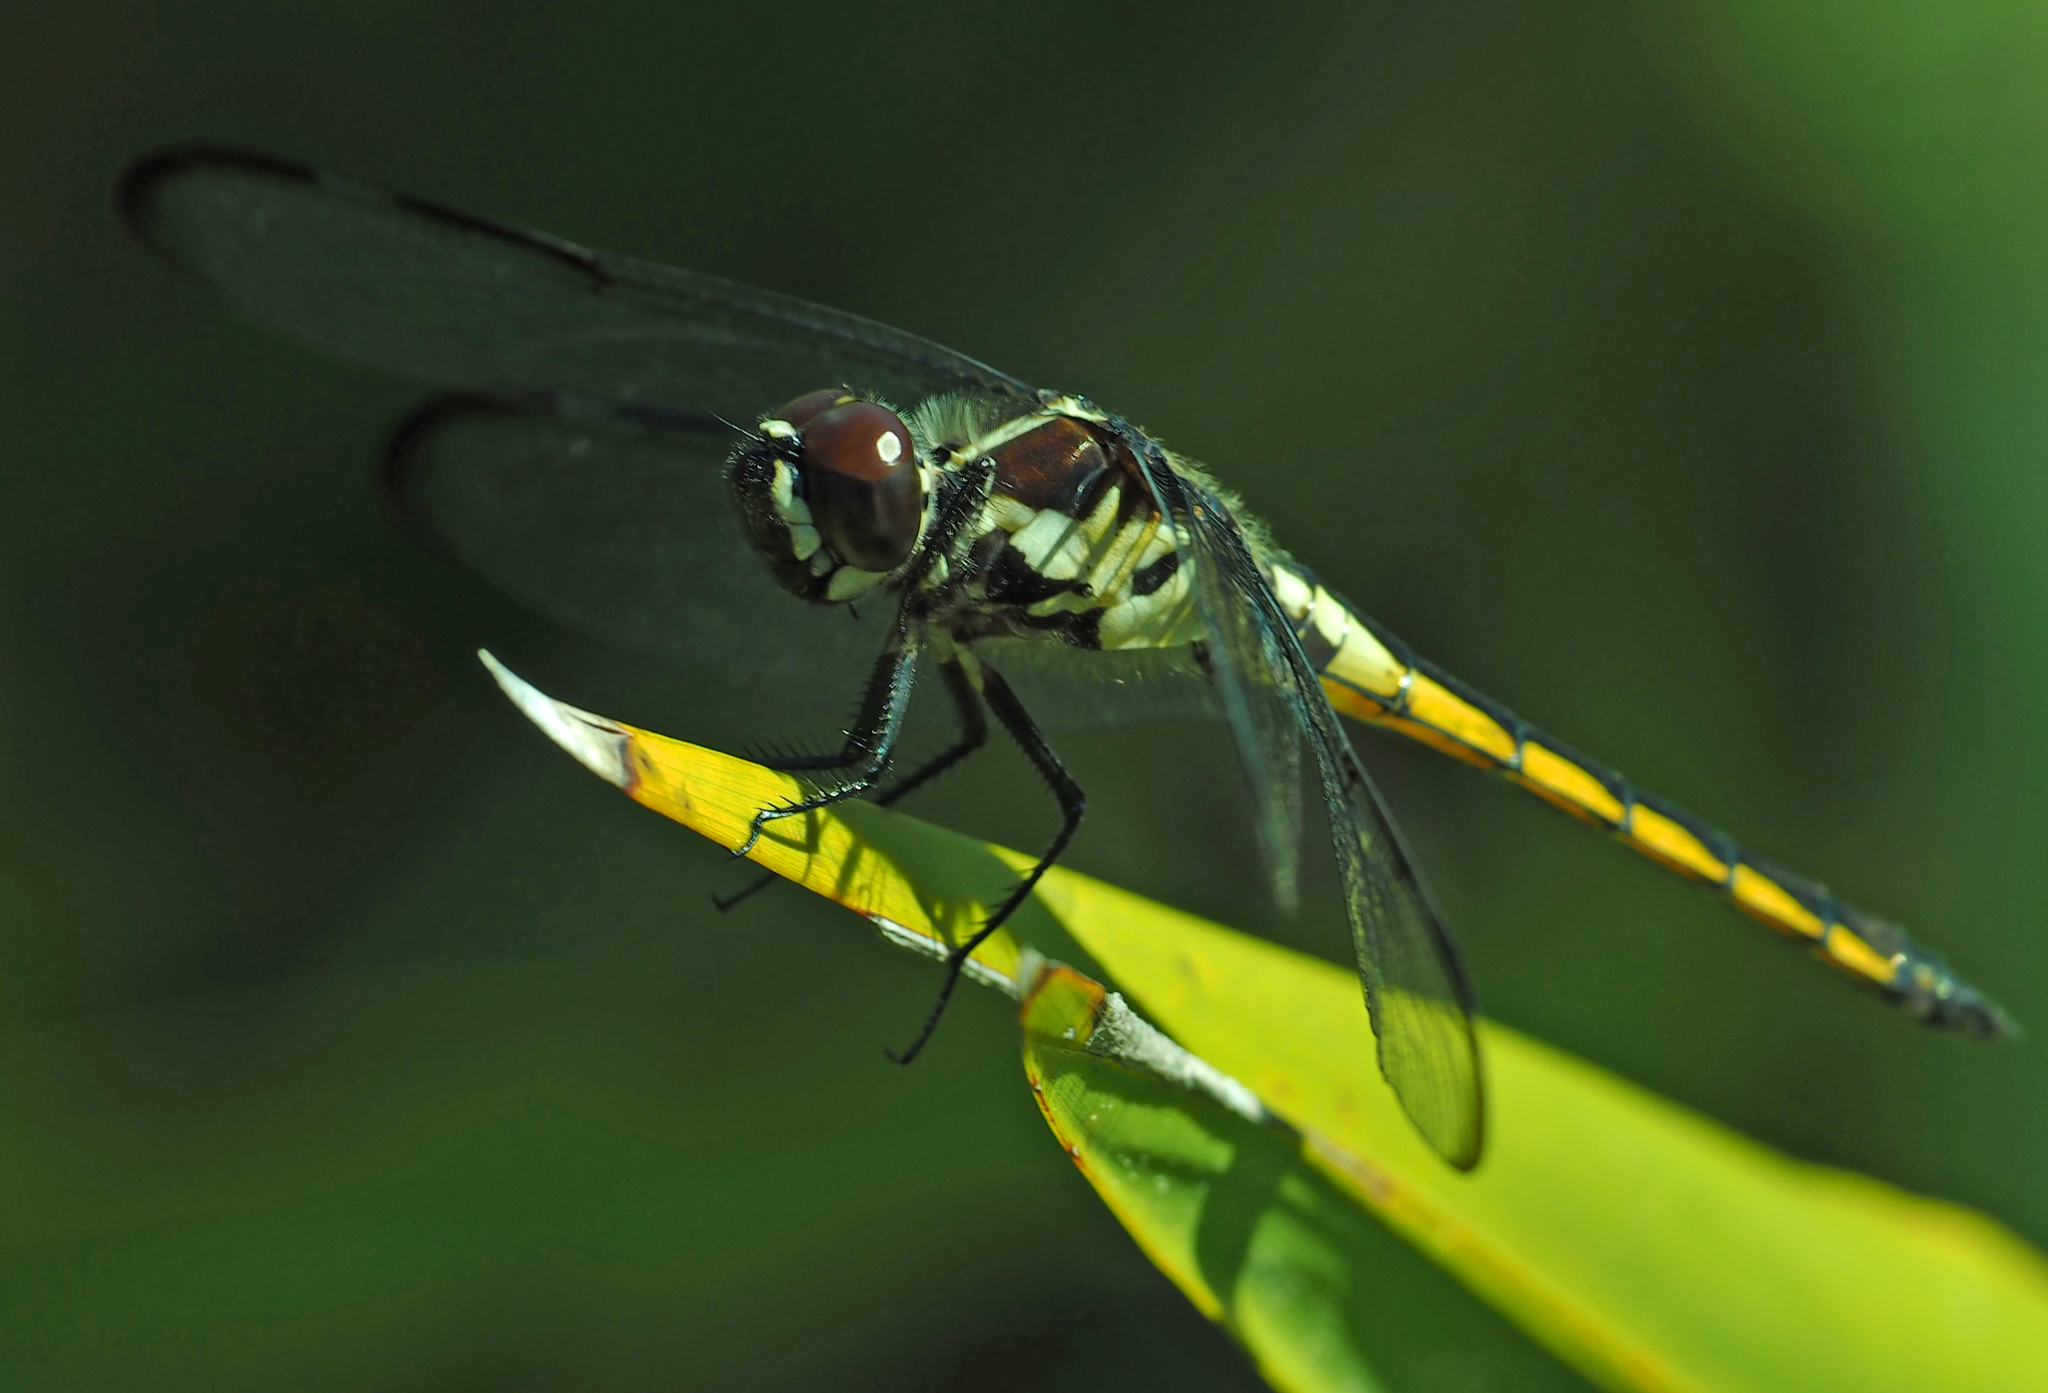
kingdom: Animalia
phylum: Arthropoda
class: Insecta
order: Odonata
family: Libellulidae
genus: Libellula
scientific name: Libellula axilena
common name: Bar-winged skimmer
